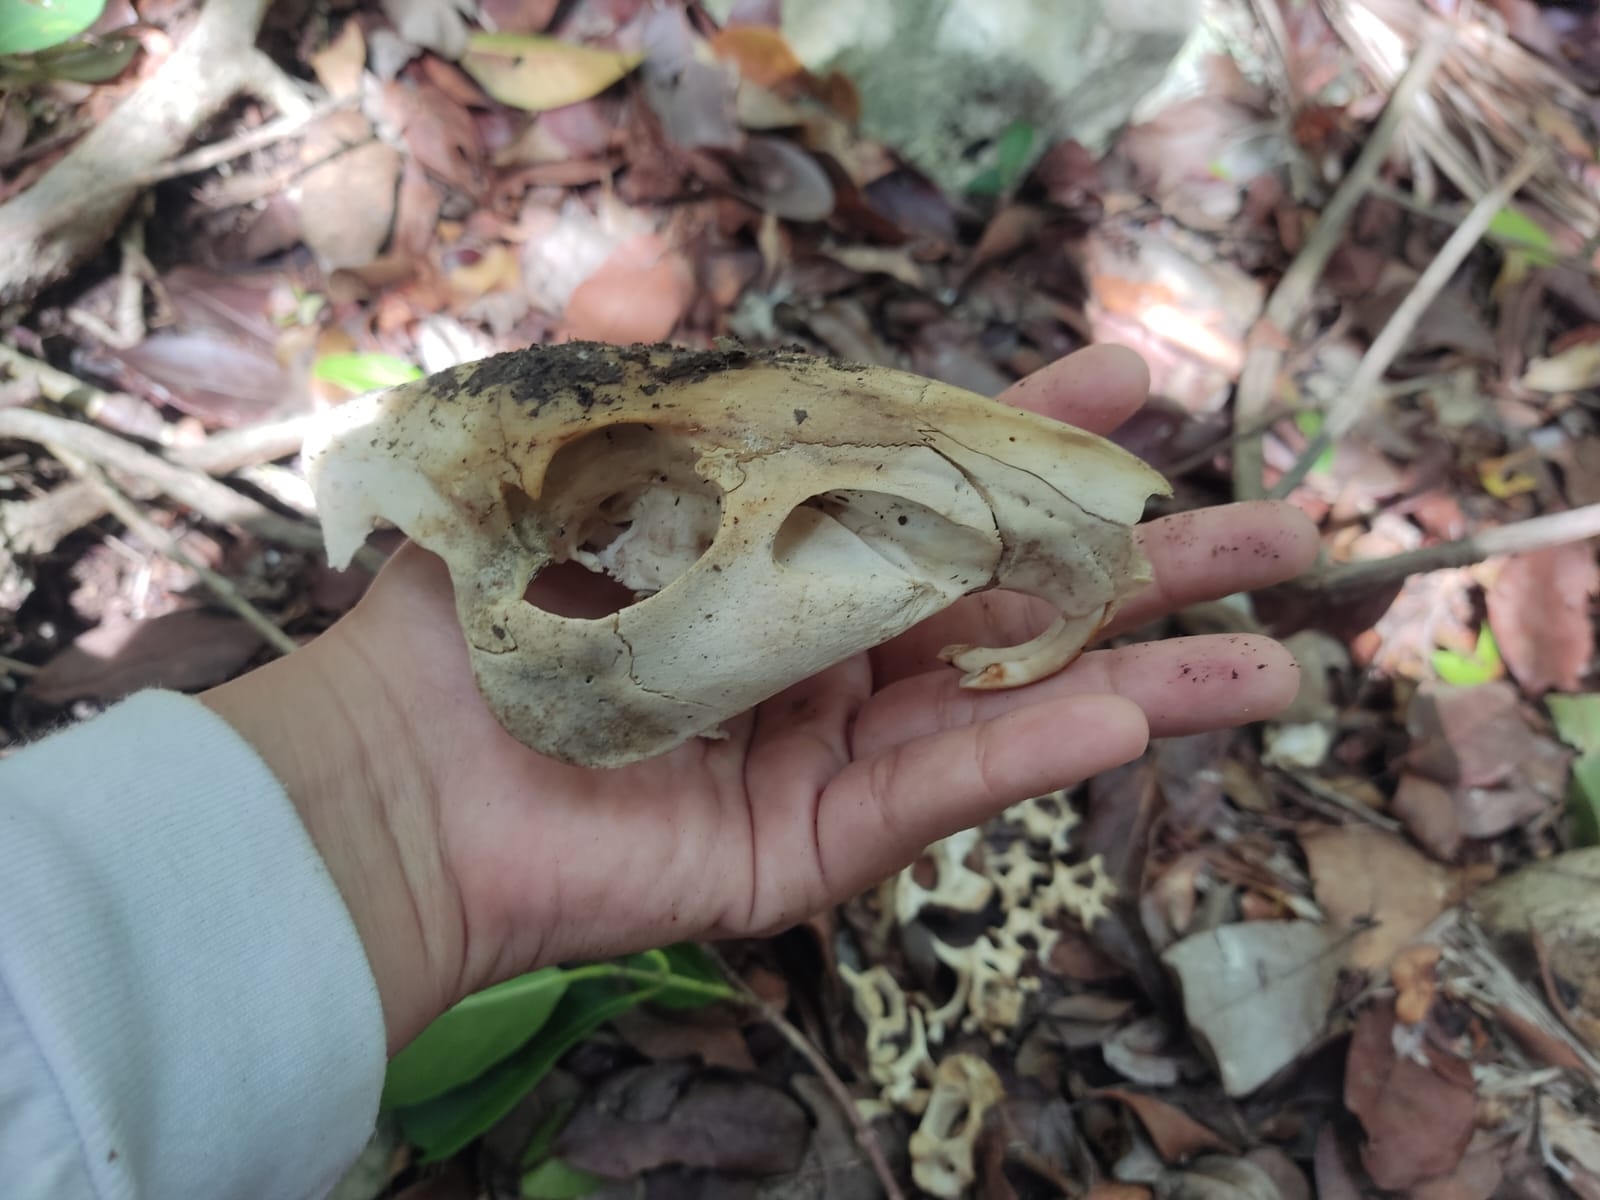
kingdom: Animalia
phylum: Chordata
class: Mammalia
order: Rodentia
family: Cuniculidae
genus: Cuniculus
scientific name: Cuniculus paca
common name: Lowland paca
